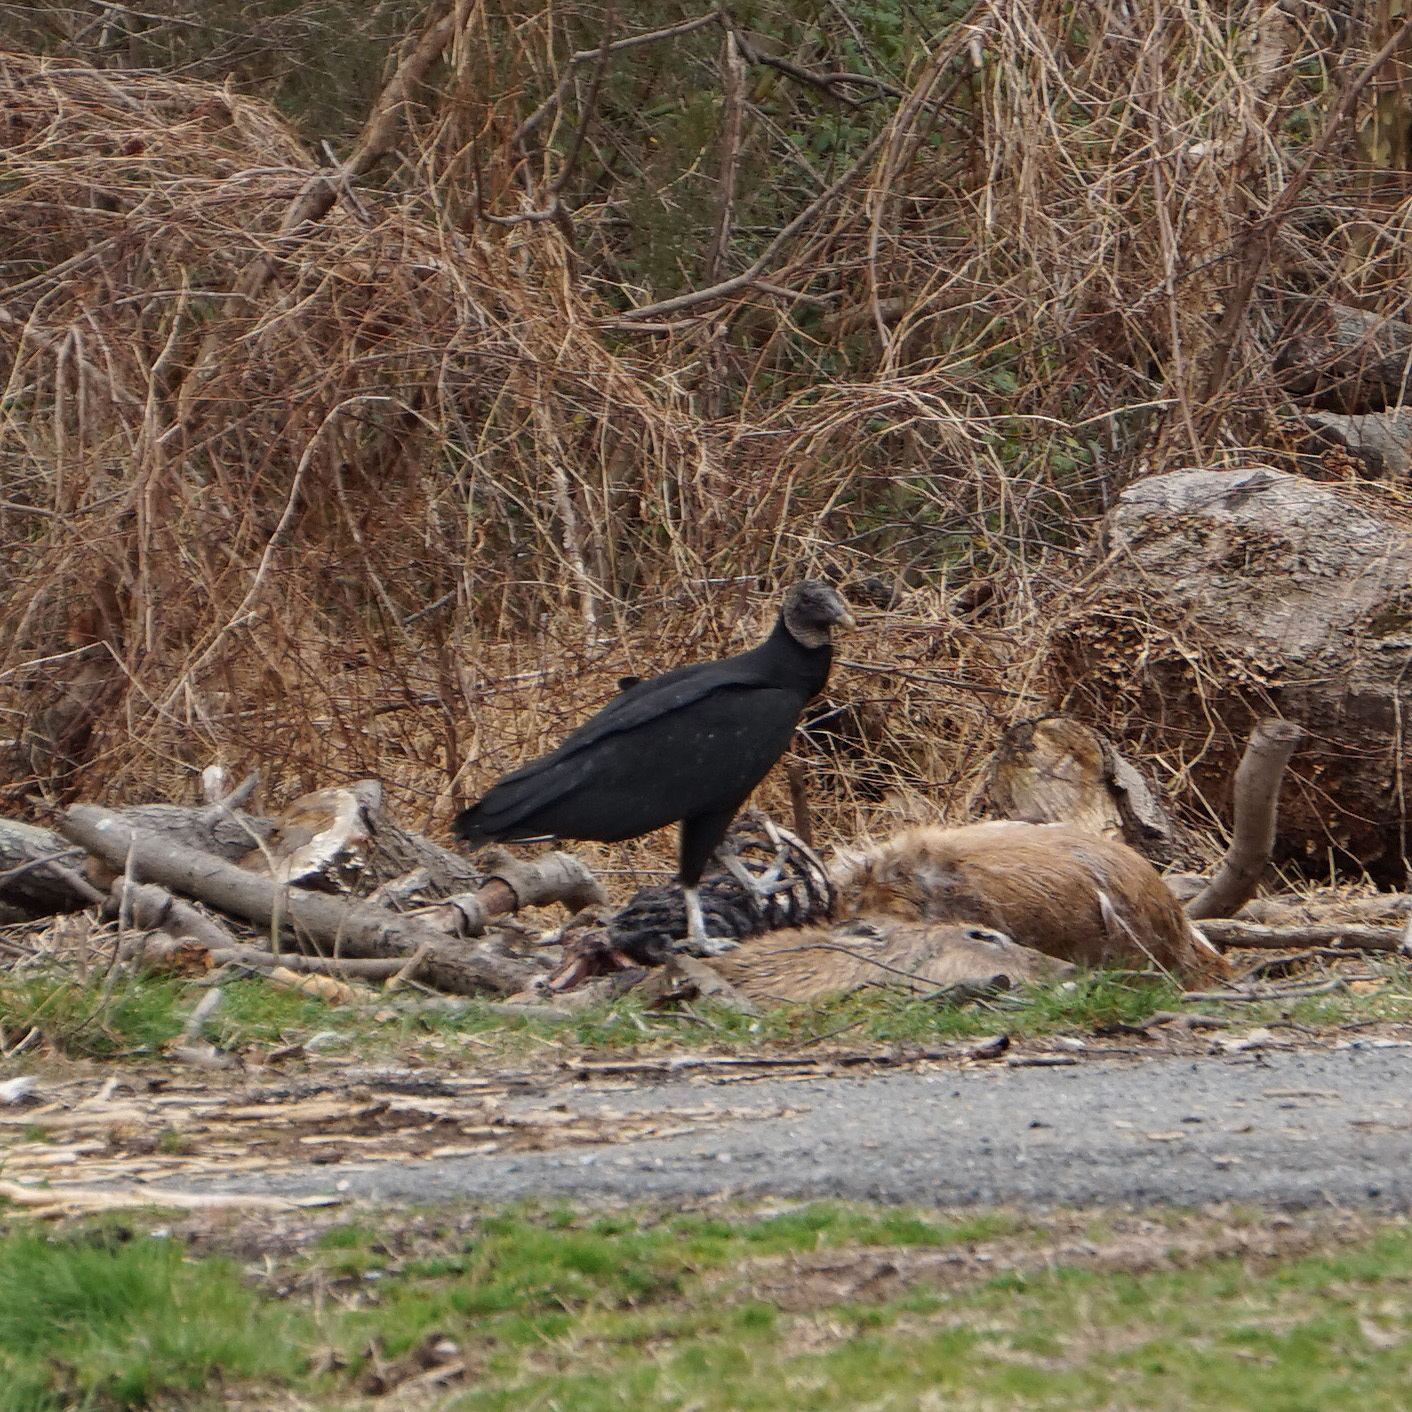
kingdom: Animalia
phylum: Chordata
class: Aves
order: Accipitriformes
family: Cathartidae
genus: Coragyps
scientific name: Coragyps atratus
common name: Black vulture
